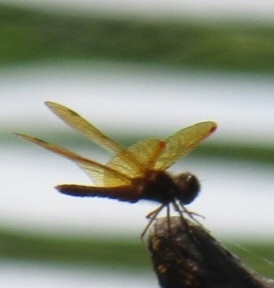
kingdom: Animalia
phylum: Arthropoda
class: Insecta
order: Odonata
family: Libellulidae
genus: Perithemis
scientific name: Perithemis tenera
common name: Eastern amberwing
